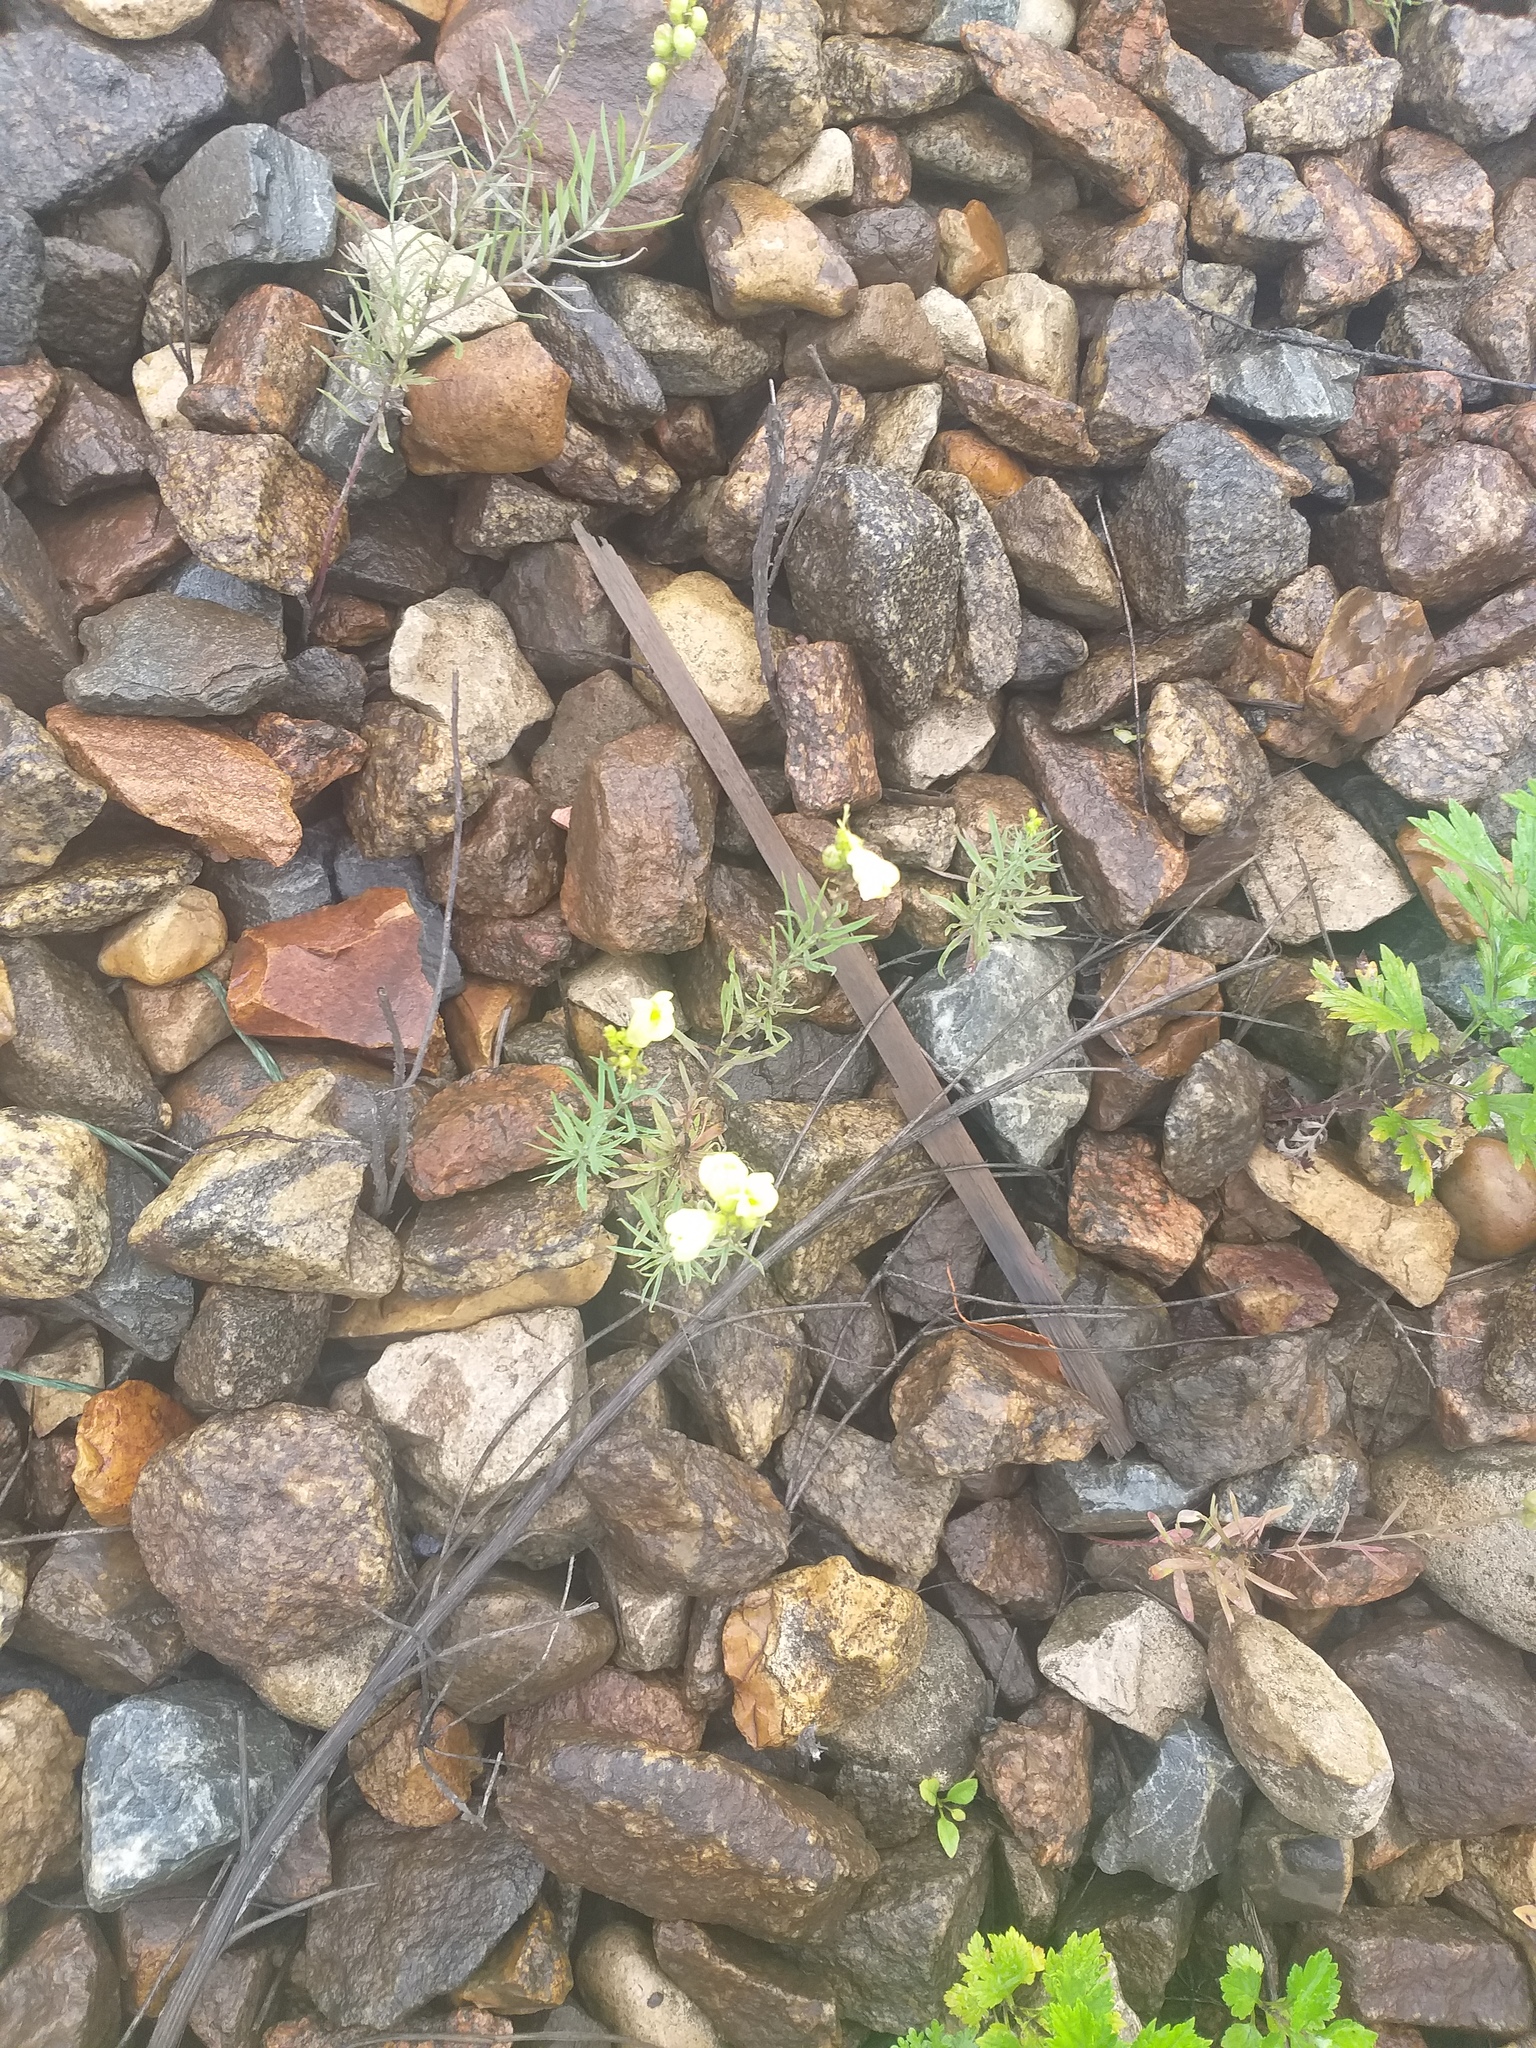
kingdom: Plantae
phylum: Tracheophyta
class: Magnoliopsida
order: Lamiales
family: Plantaginaceae
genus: Linaria
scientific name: Linaria vulgaris
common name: Butter and eggs
